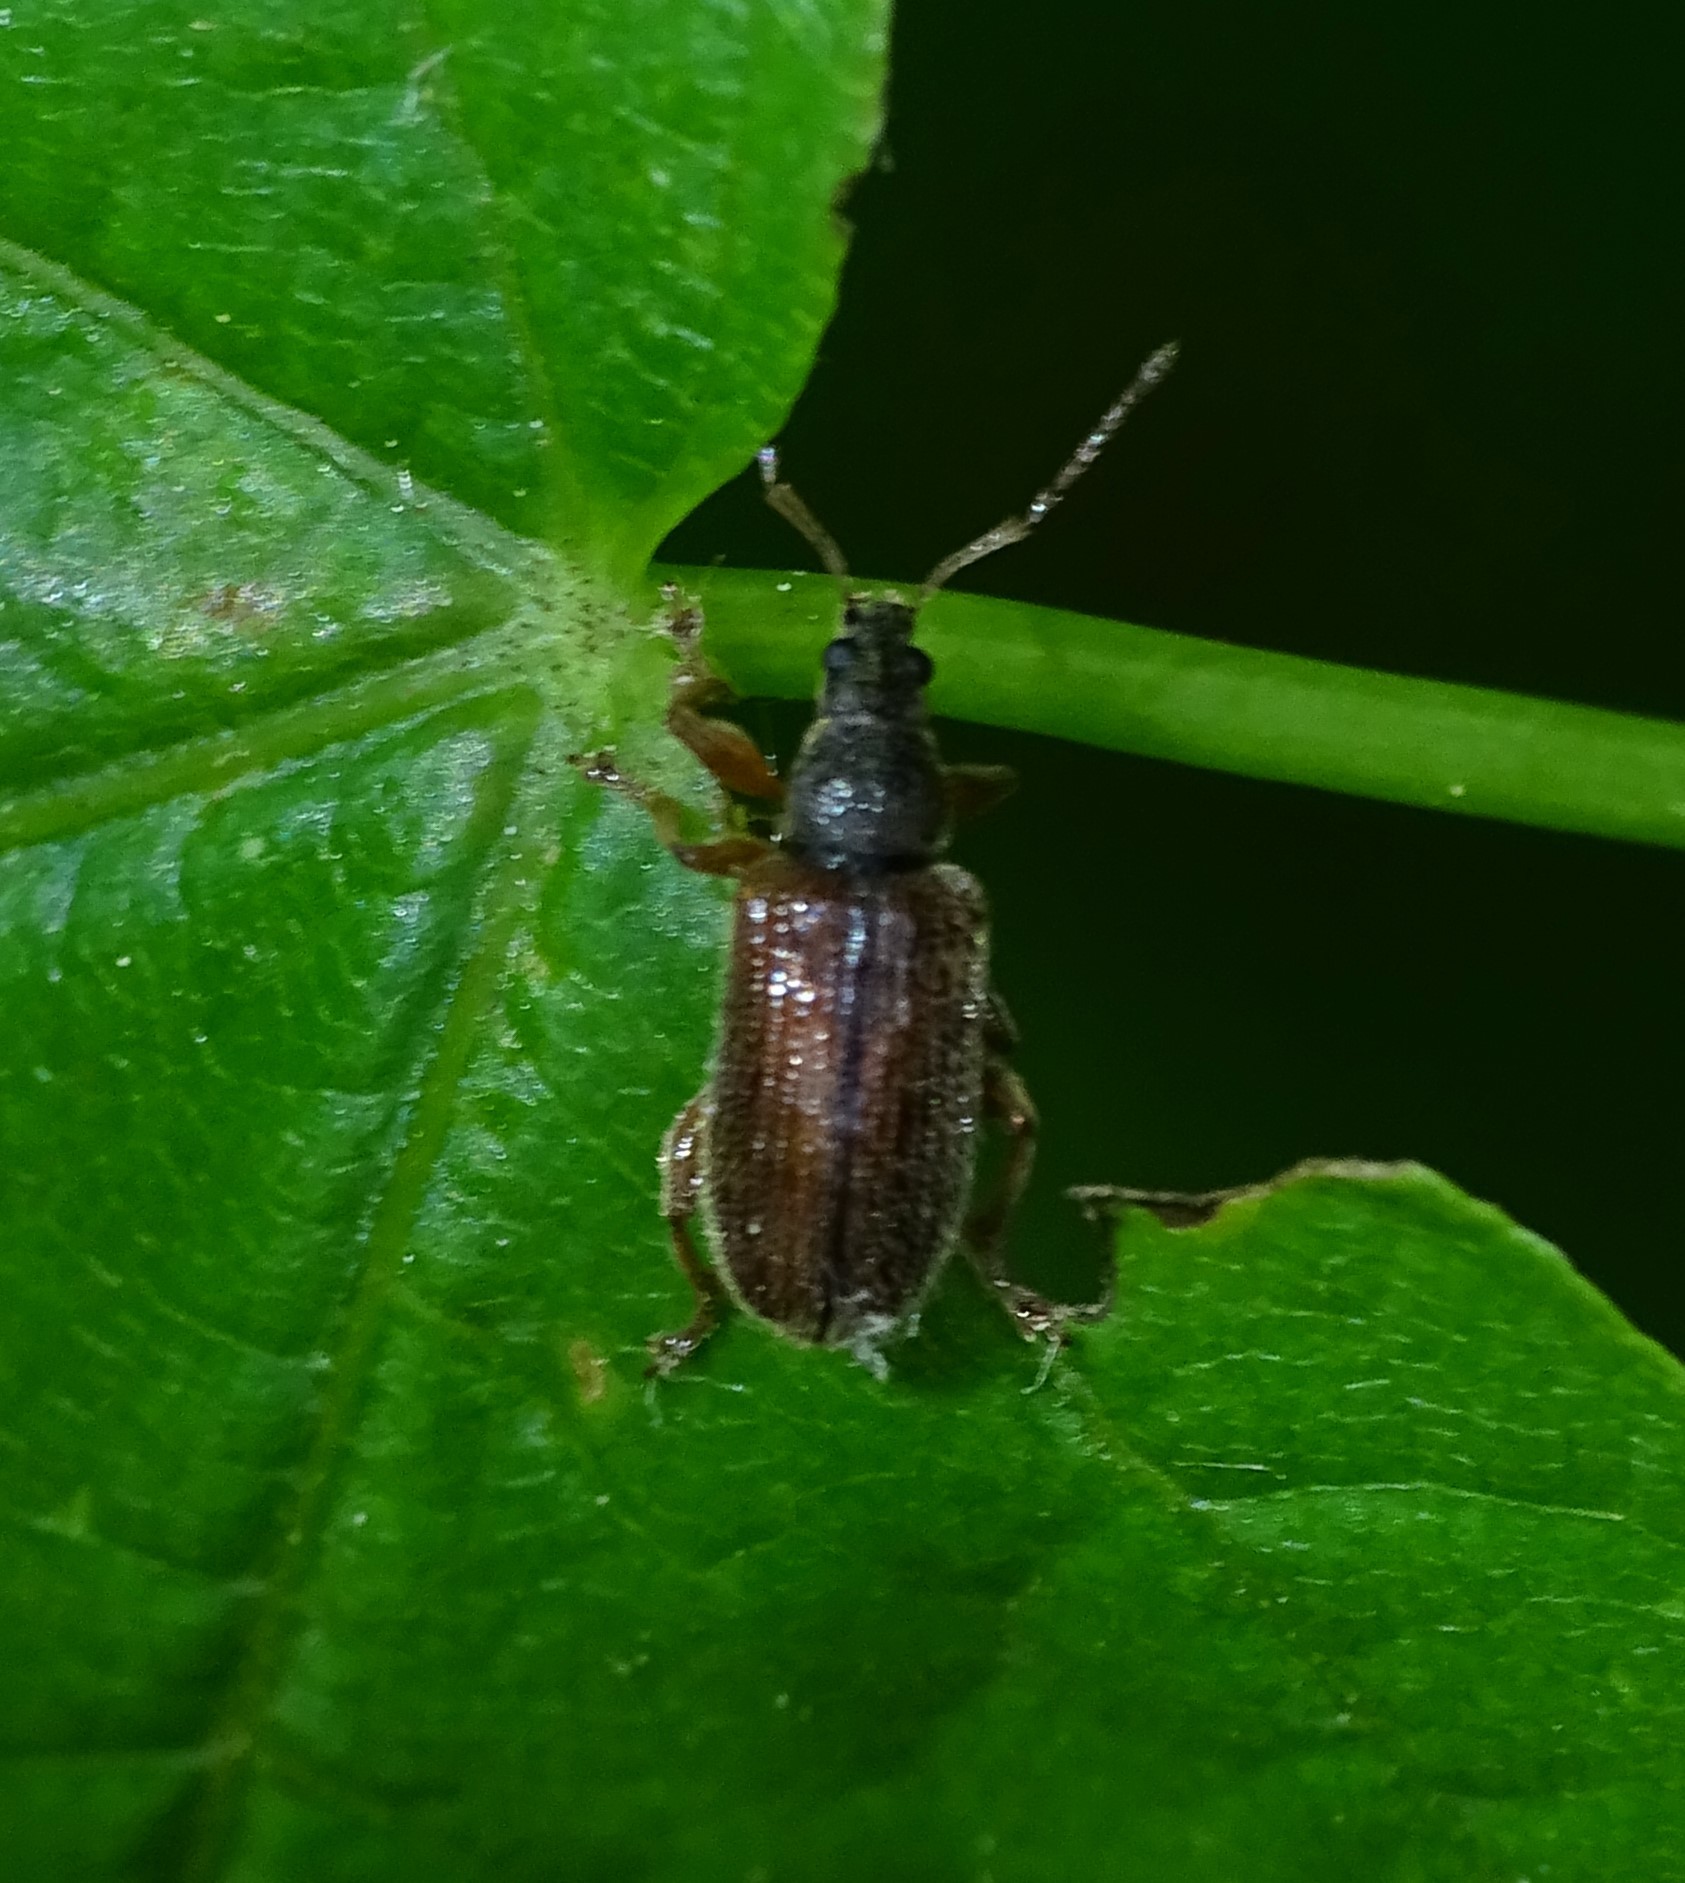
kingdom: Animalia
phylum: Arthropoda
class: Insecta
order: Coleoptera
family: Curculionidae
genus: Phyllobius
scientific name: Phyllobius oblongus
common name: Brown leaf weevil
